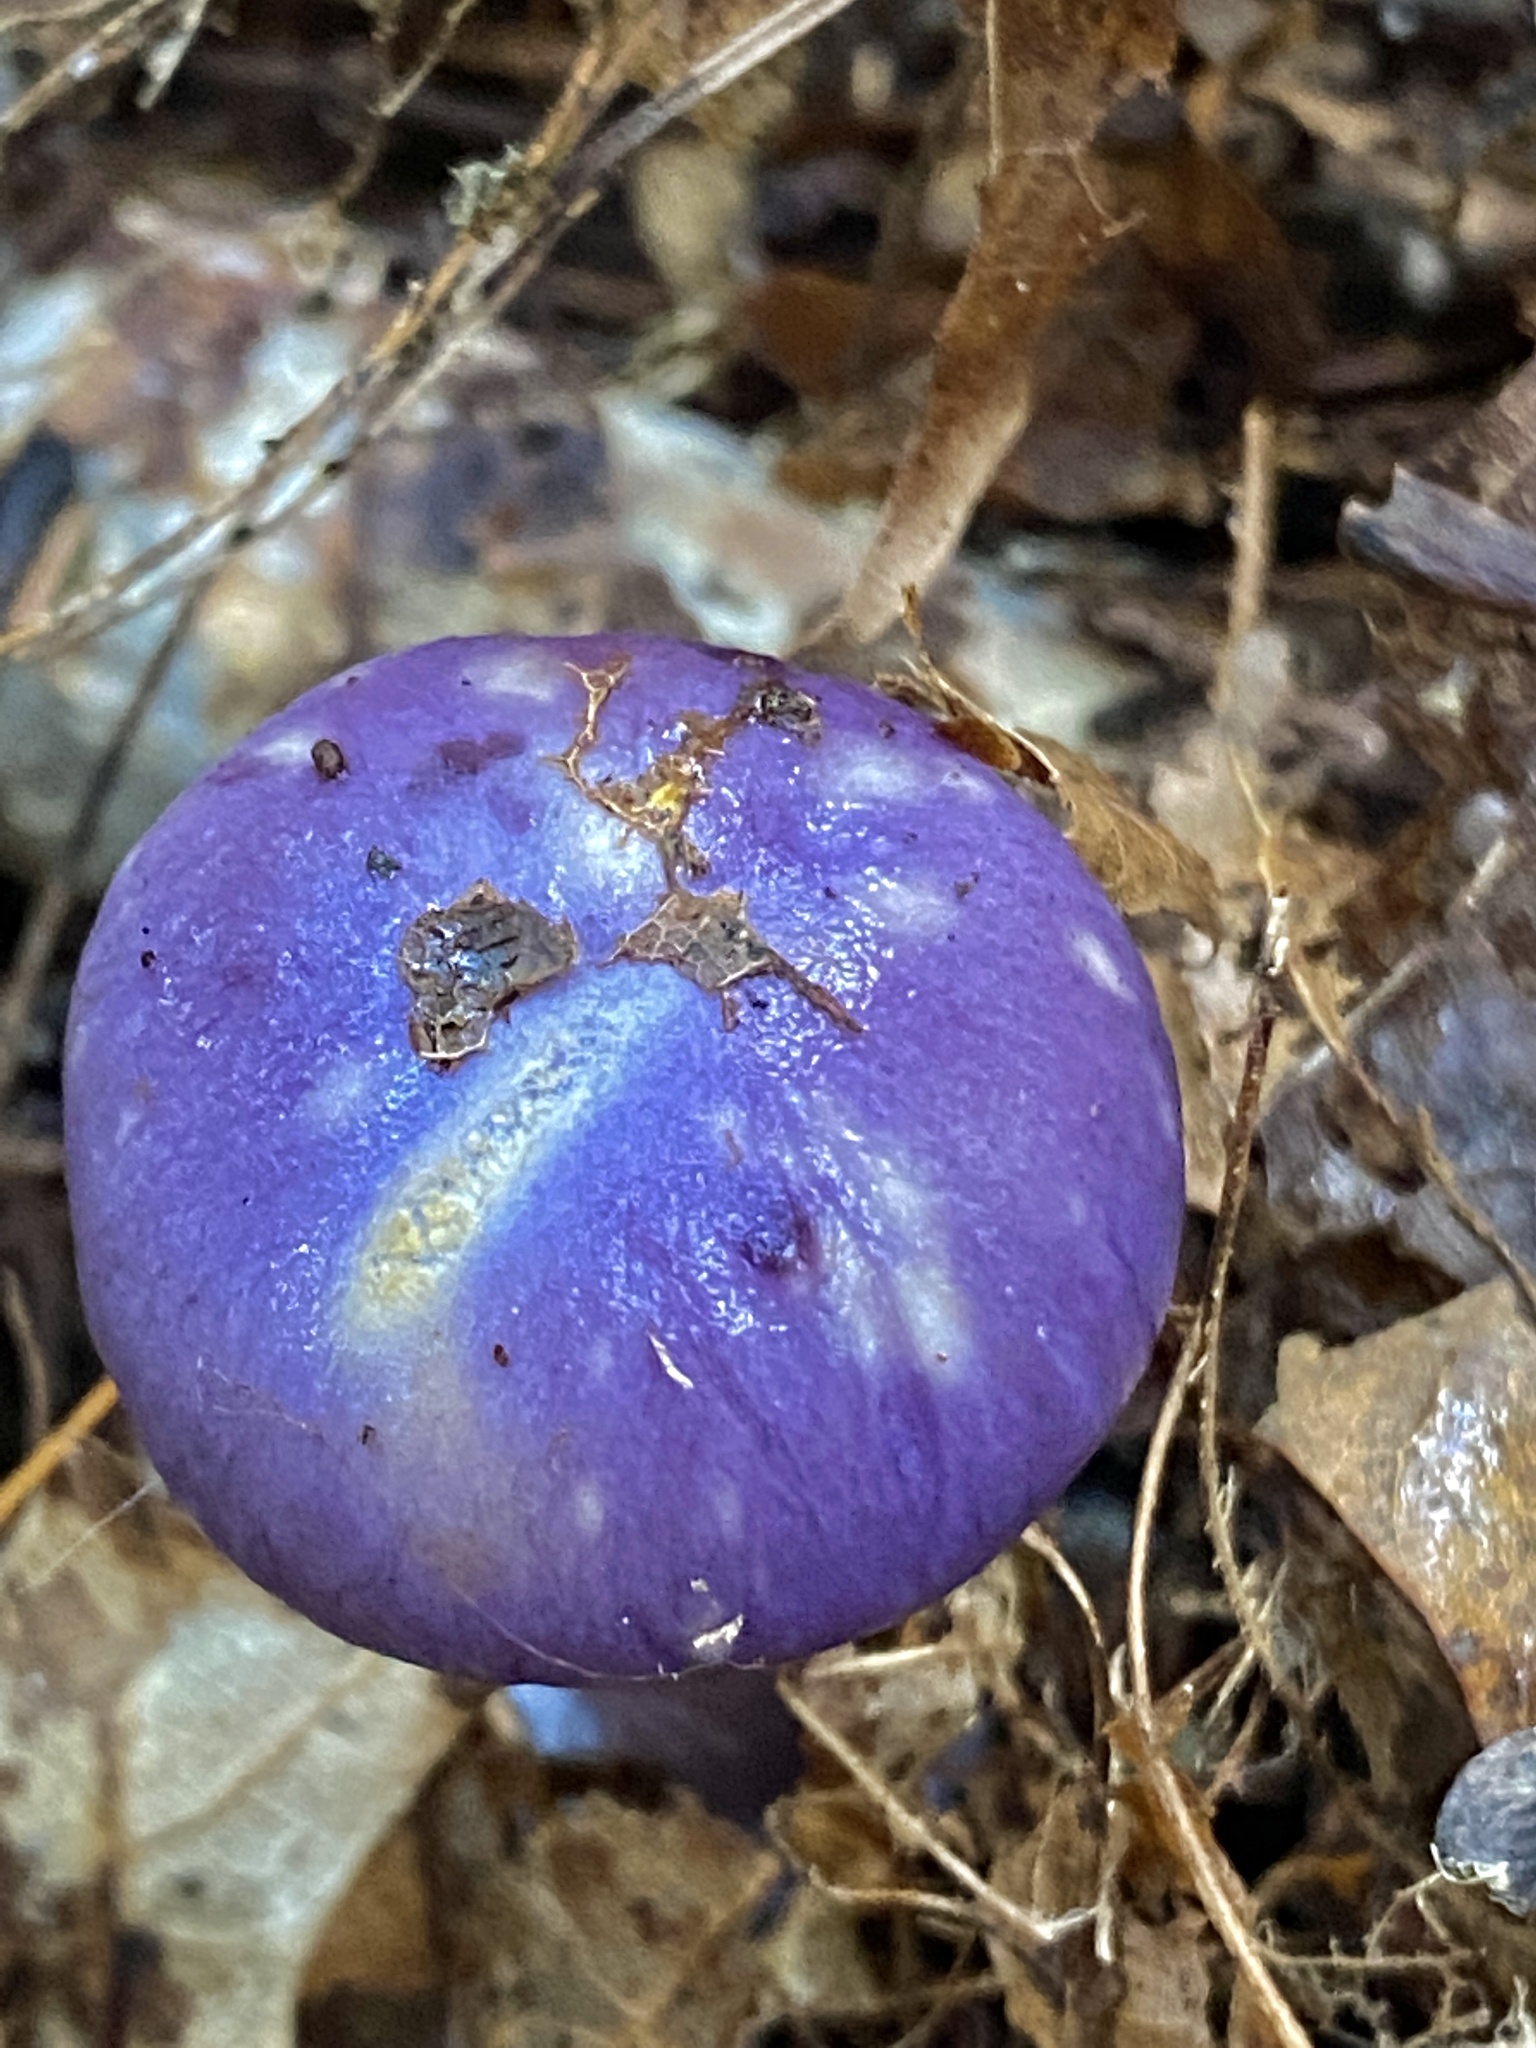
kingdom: Fungi
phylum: Basidiomycota
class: Agaricomycetes
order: Agaricales
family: Cortinariaceae
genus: Cortinarius
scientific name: Cortinarius iodes
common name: Viscid violet cort
